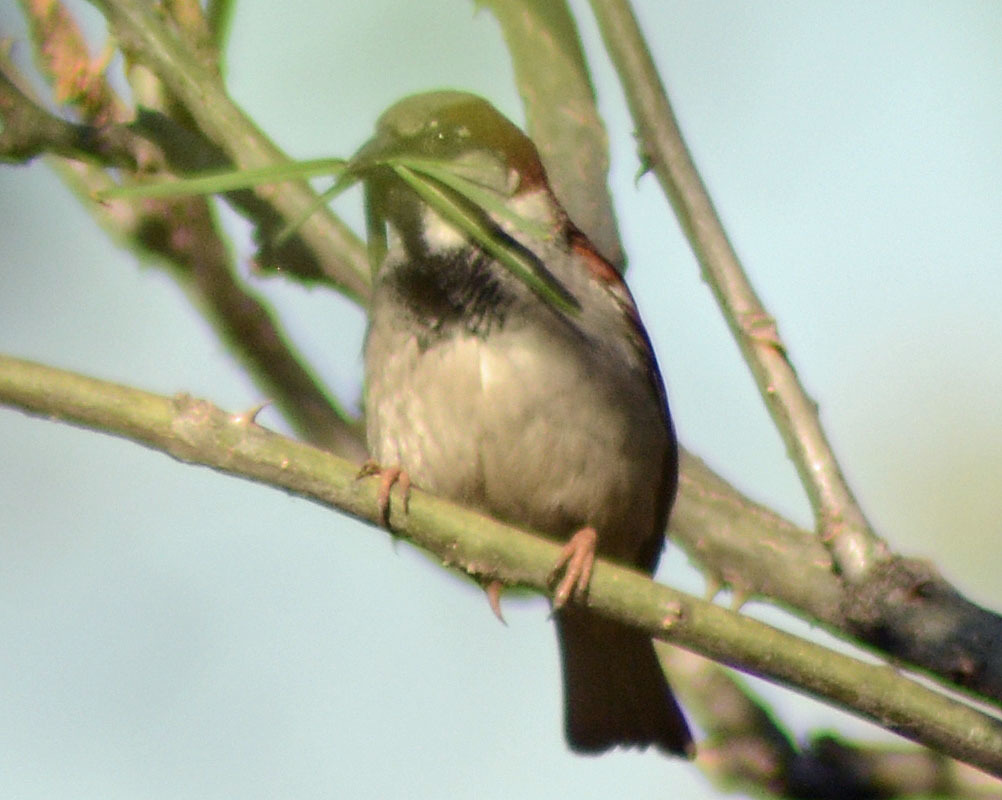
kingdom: Animalia
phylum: Chordata
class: Aves
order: Passeriformes
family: Passeridae
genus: Passer
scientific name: Passer domesticus
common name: House sparrow
